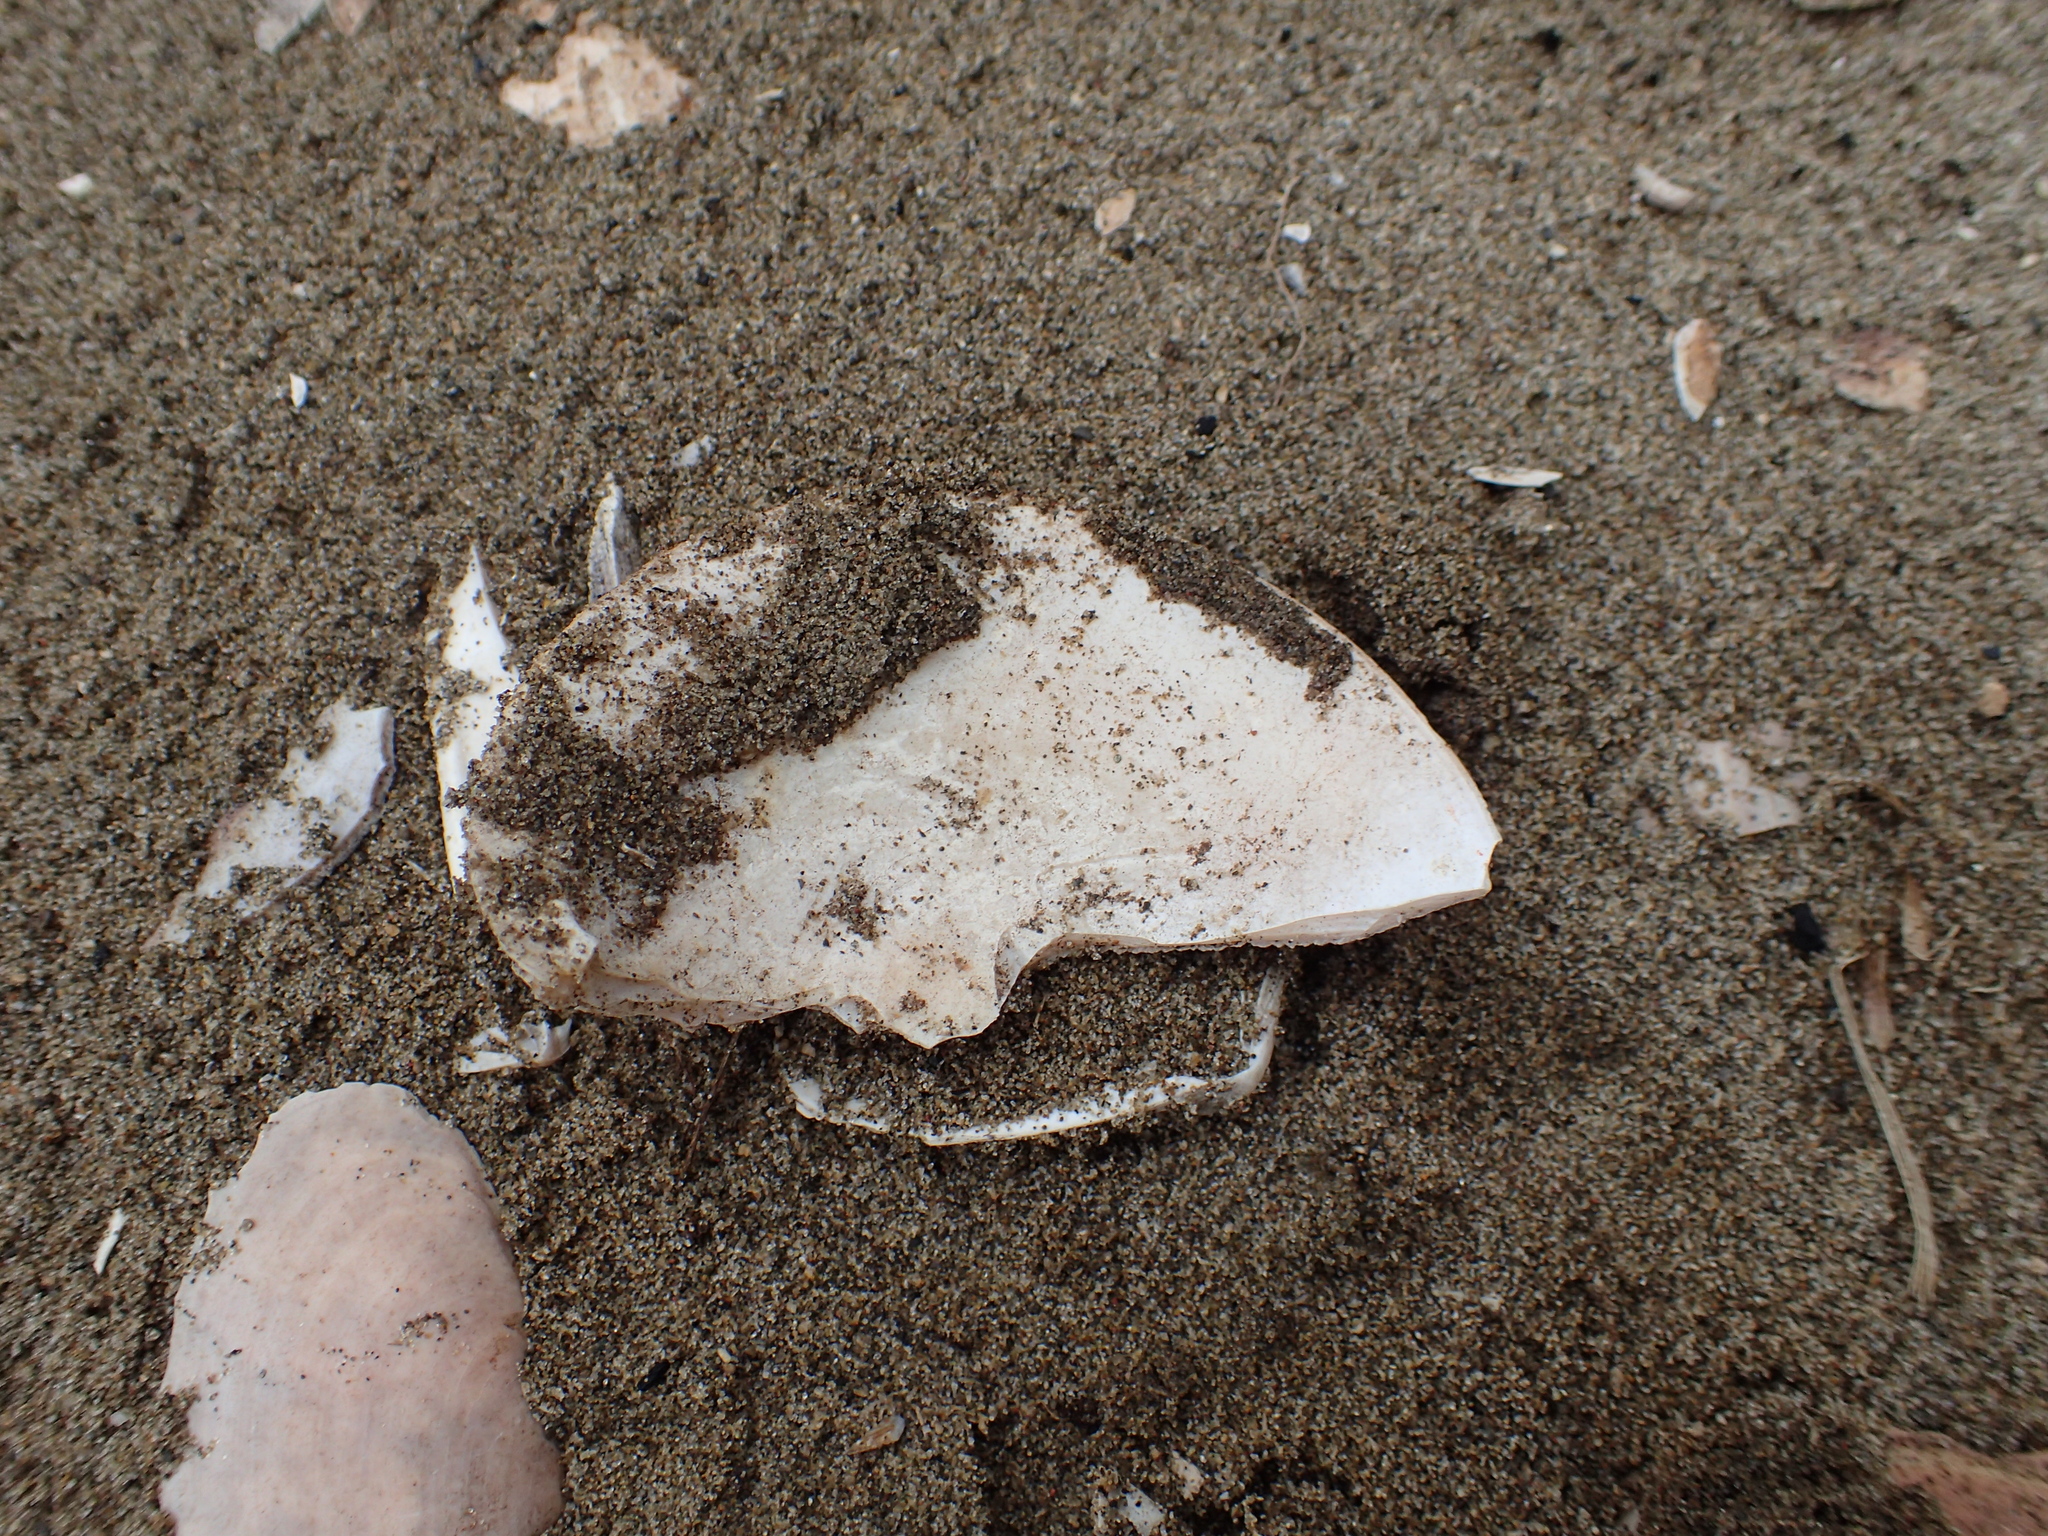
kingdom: Animalia
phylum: Mollusca
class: Bivalvia
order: Venerida
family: Veneridae
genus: Dosinia
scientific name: Dosinia anus
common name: Old-woman dosinia
